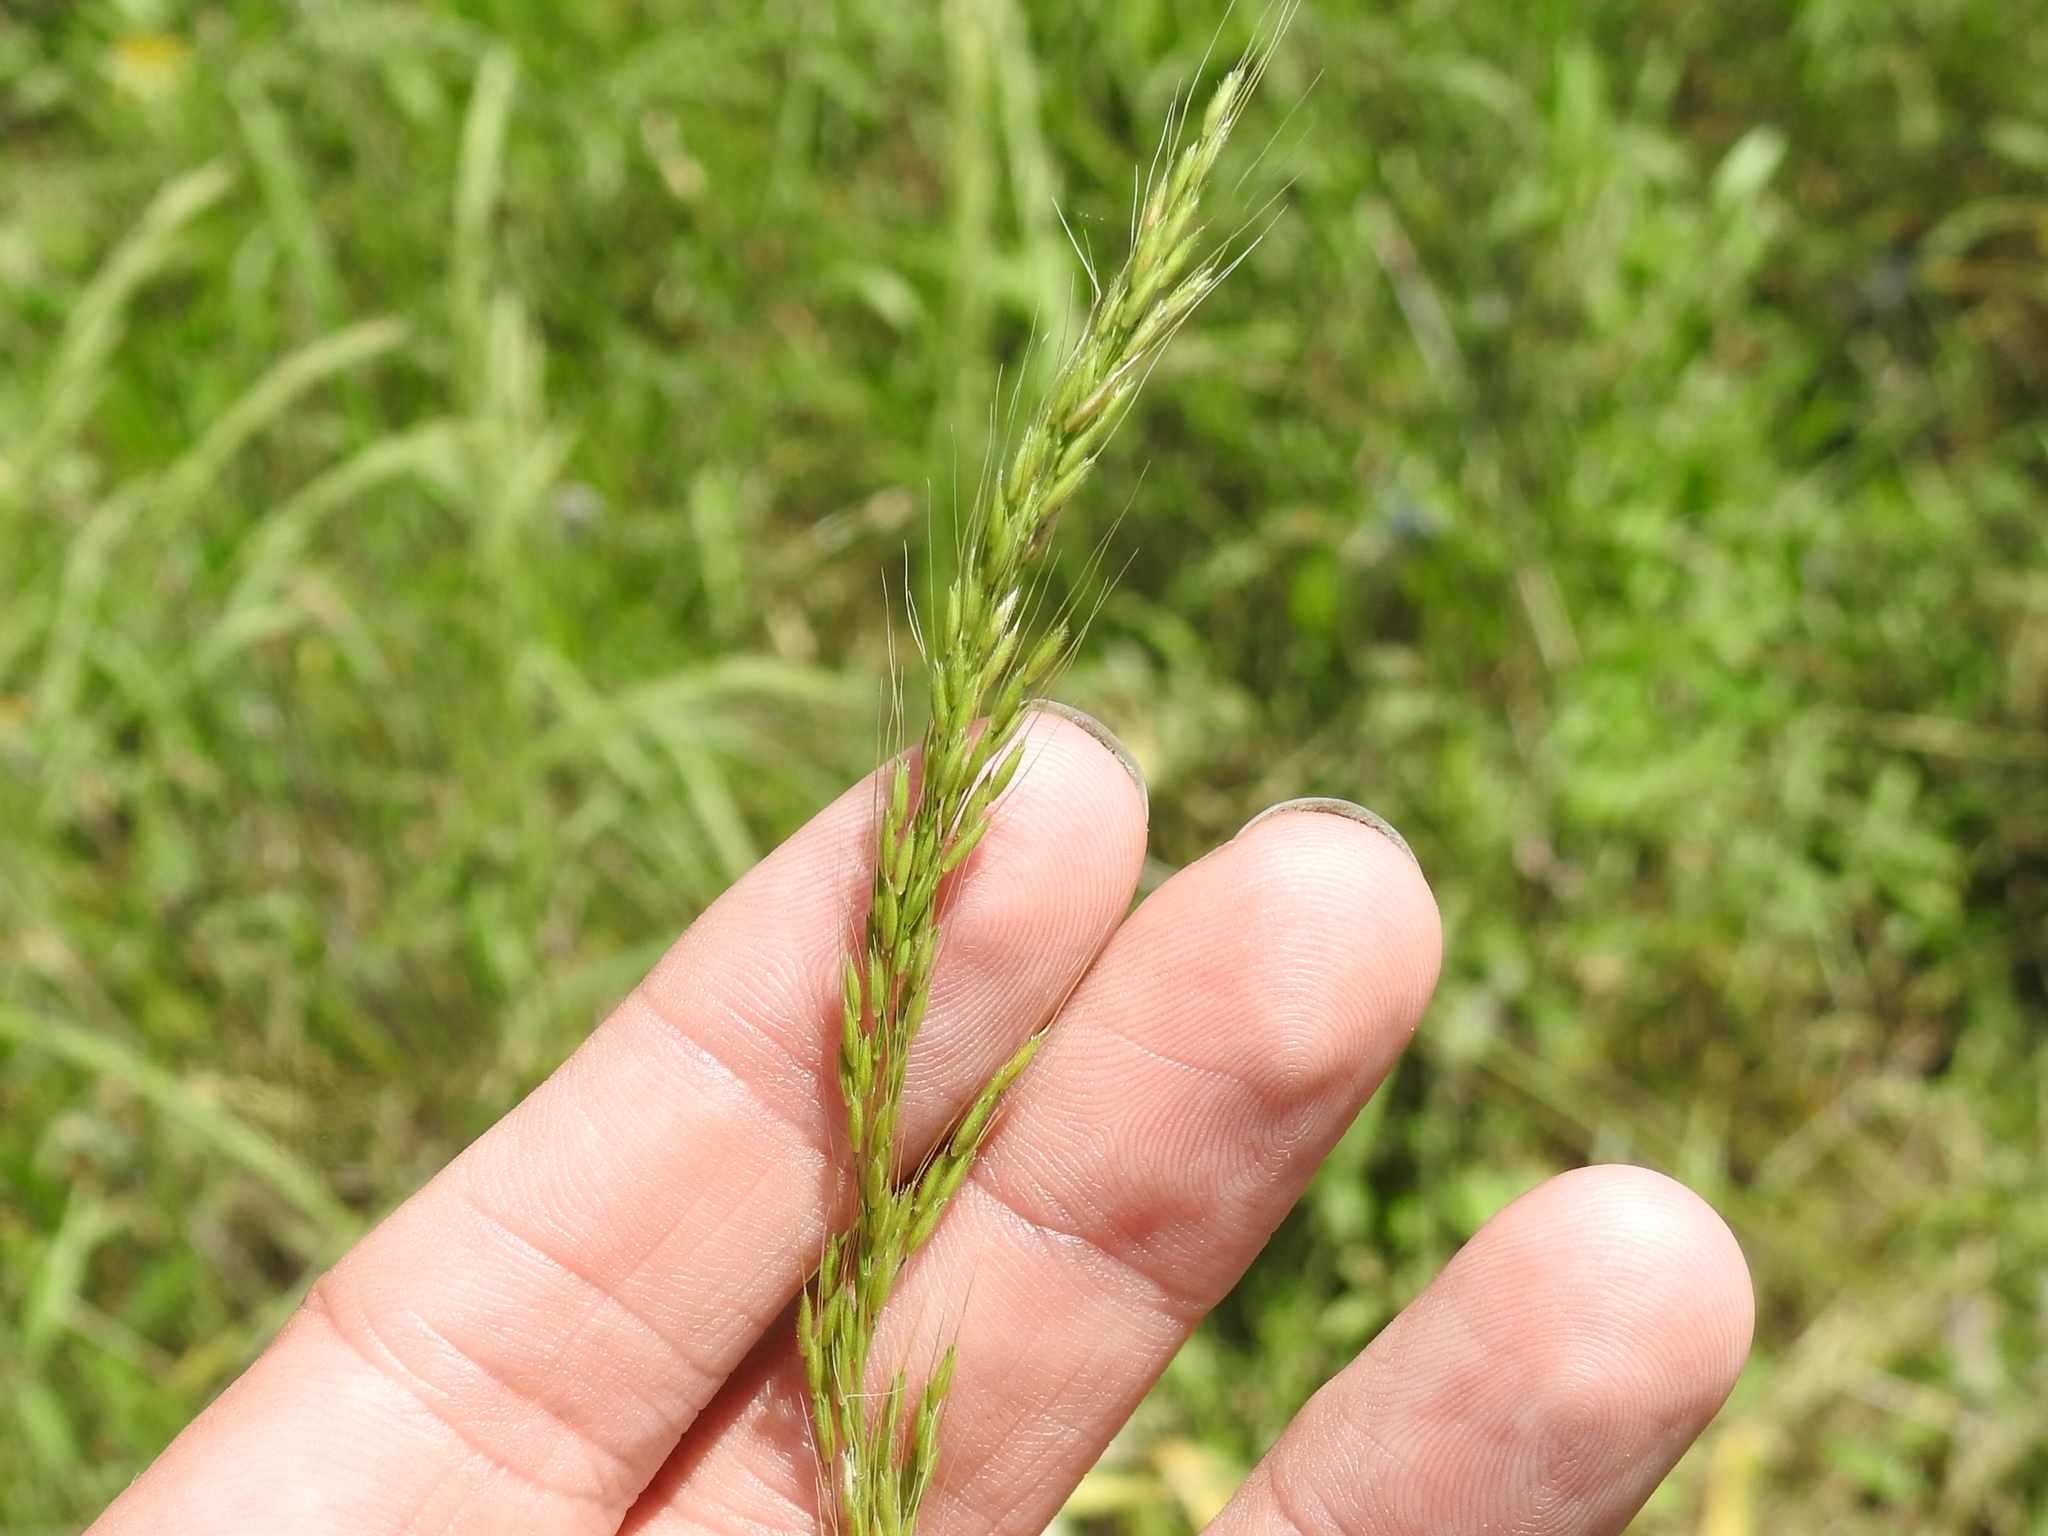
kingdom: Plantae
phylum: Tracheophyta
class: Liliopsida
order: Poales
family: Poaceae
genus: Limnodea
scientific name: Limnodea arkansana
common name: Ozark-grass
